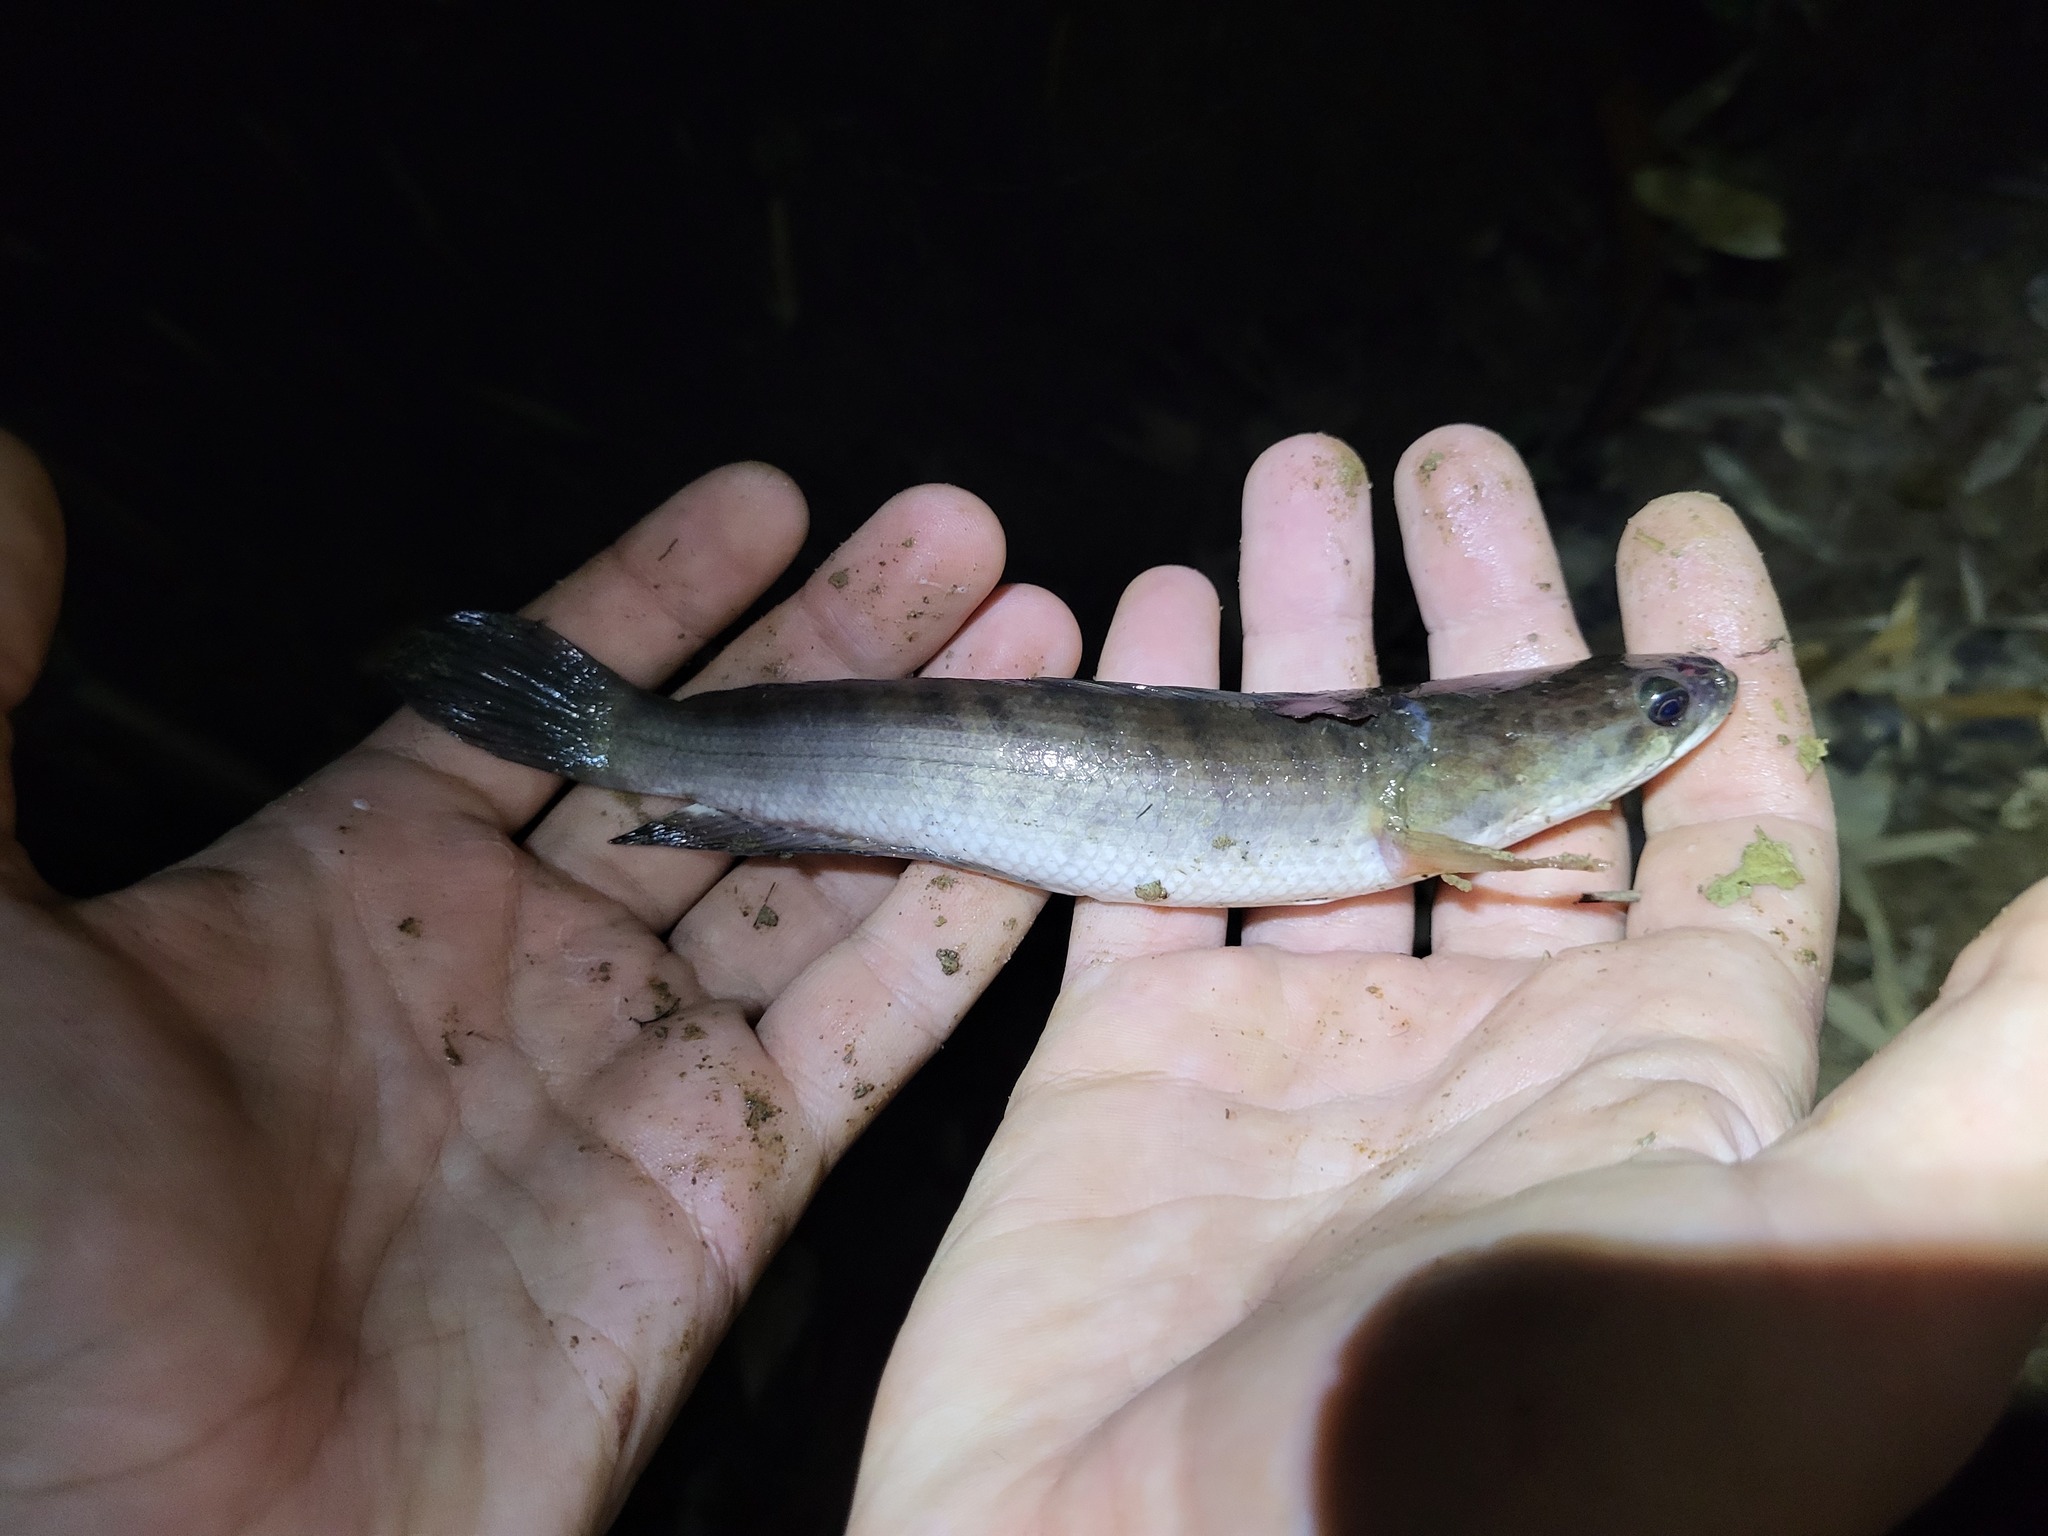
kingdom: Animalia
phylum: Chordata
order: Perciformes
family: Channidae
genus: Channa
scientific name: Channa striata
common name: Striped snakehead
